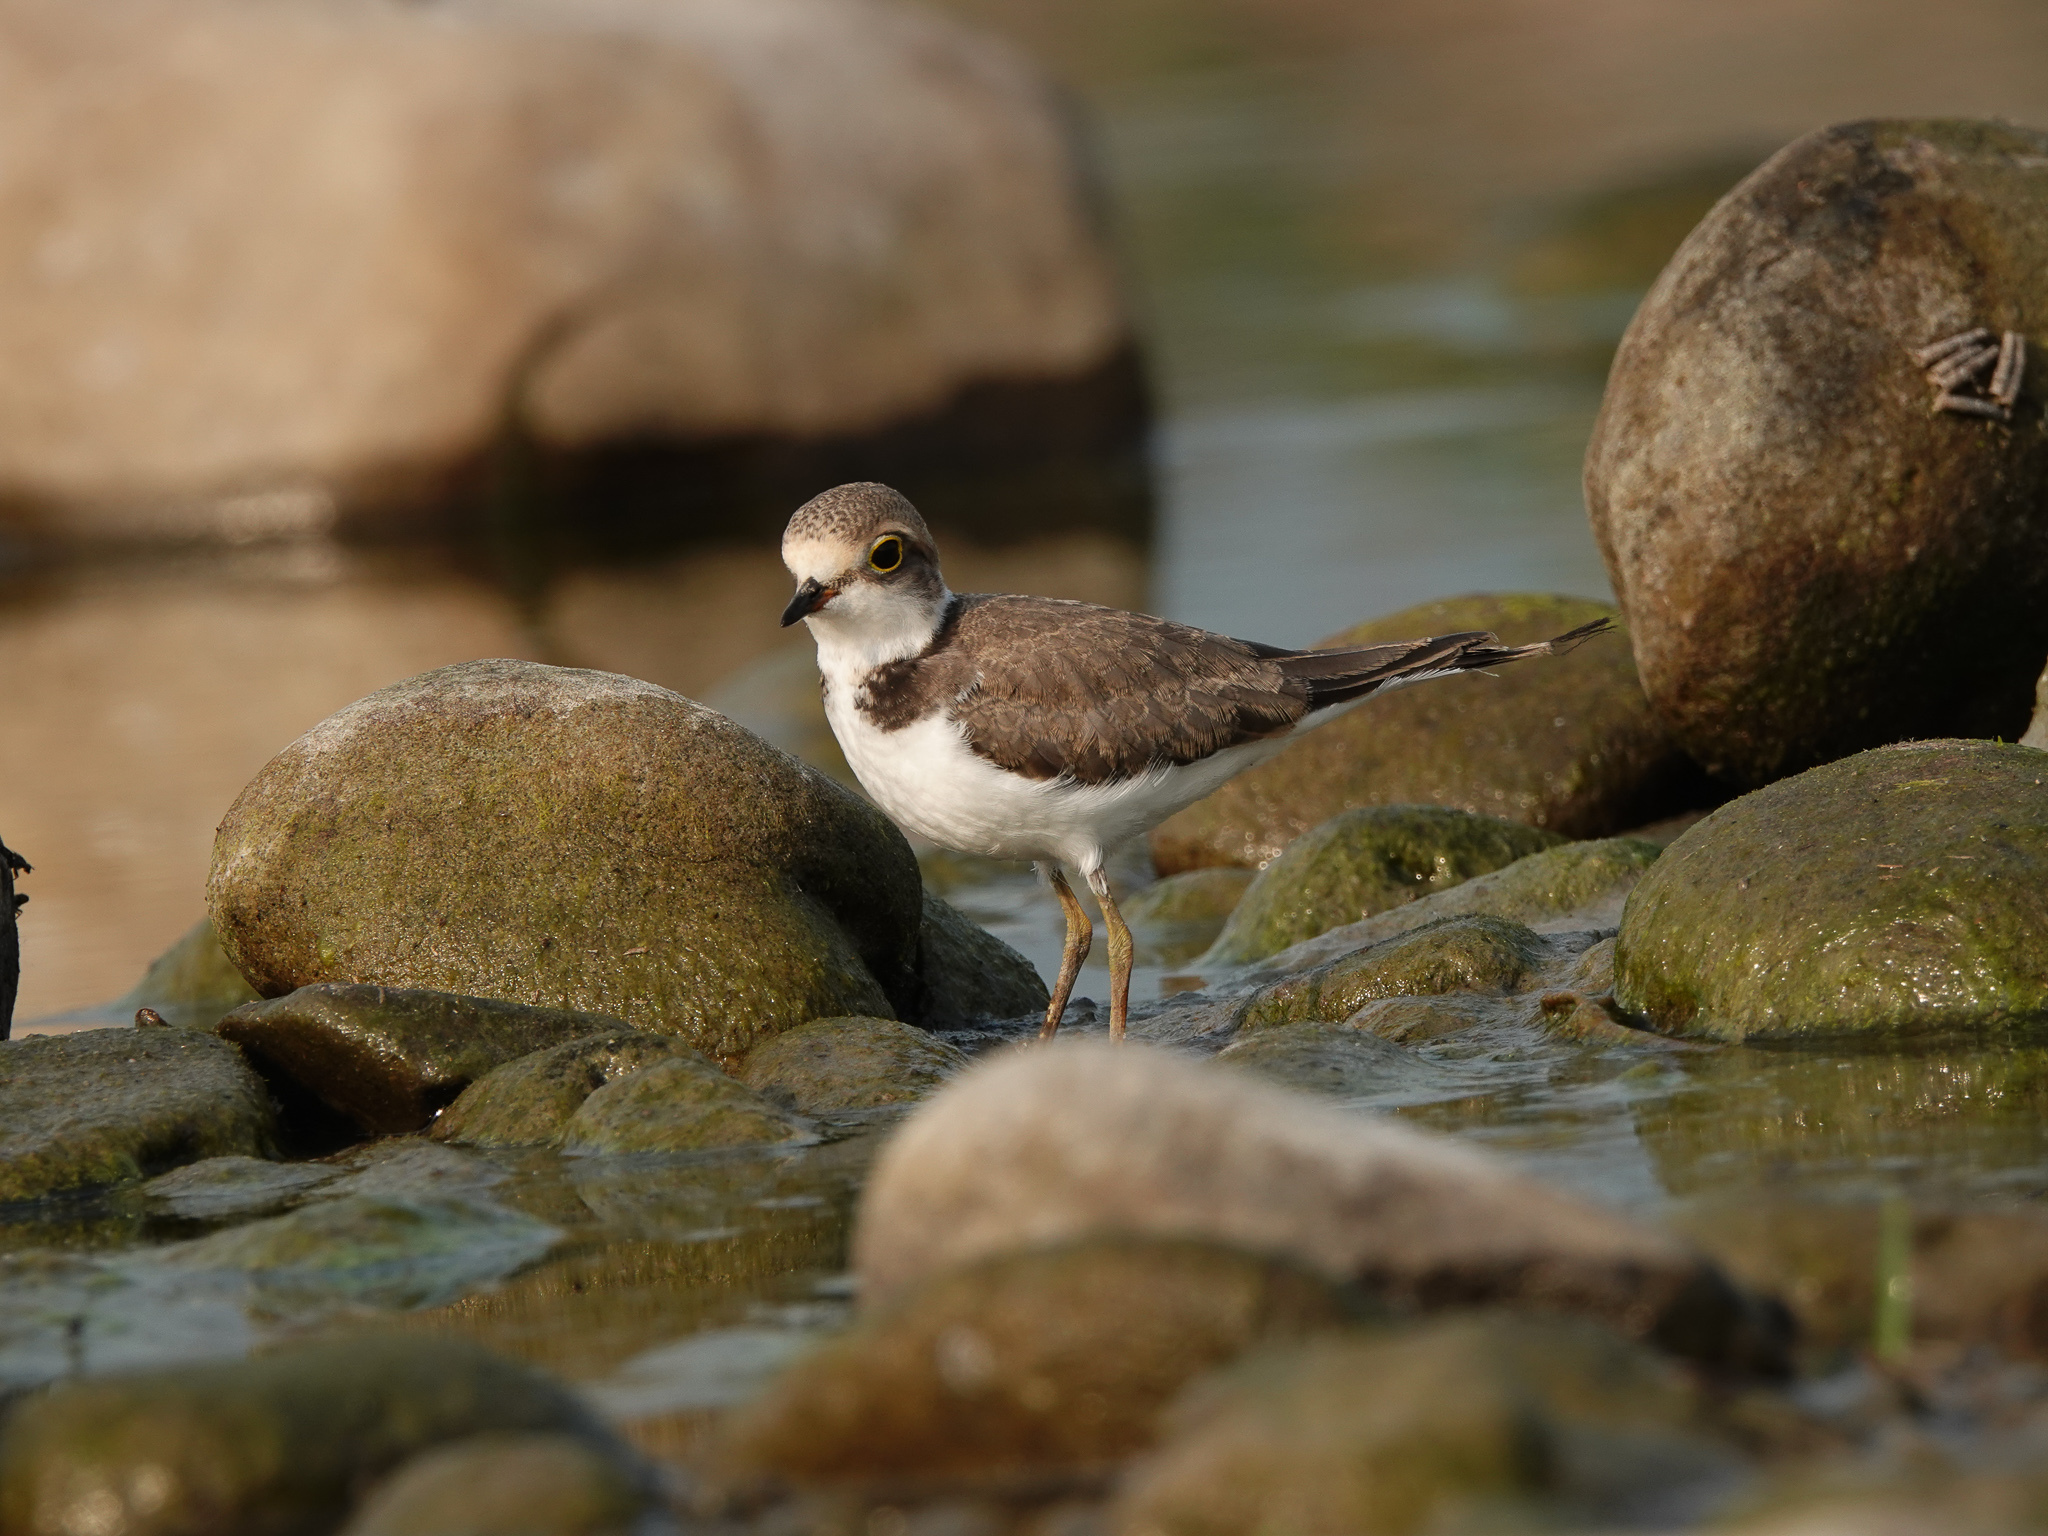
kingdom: Animalia
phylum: Chordata
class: Aves
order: Charadriiformes
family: Charadriidae
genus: Charadrius
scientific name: Charadrius dubius
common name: Little ringed plover
